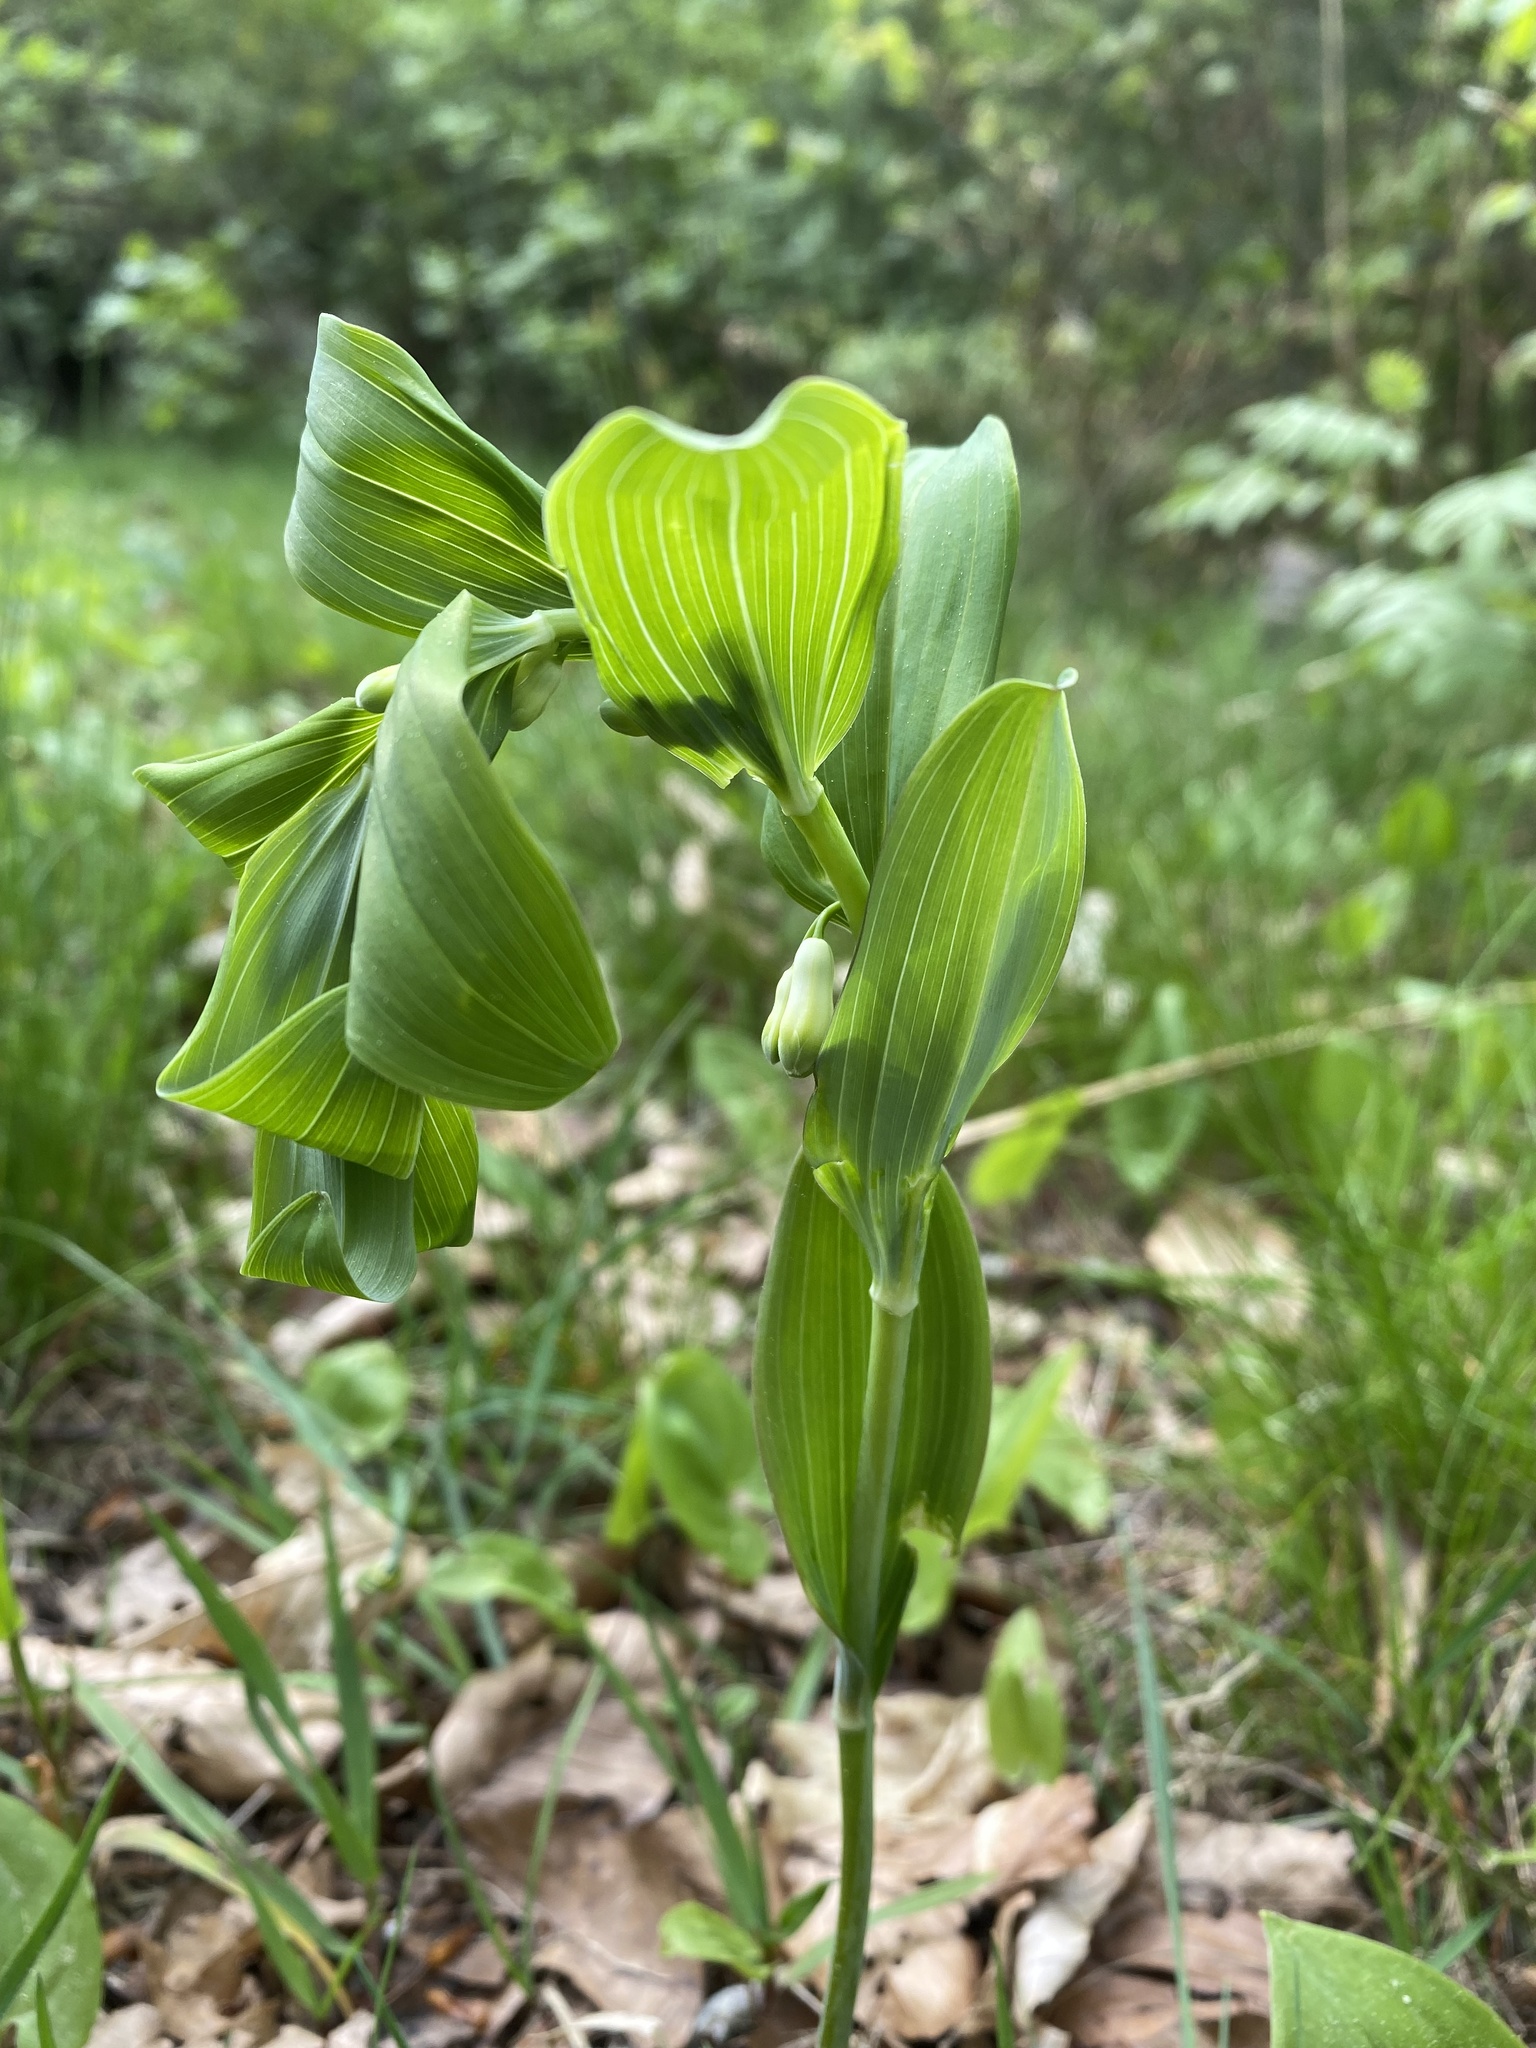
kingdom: Plantae
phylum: Tracheophyta
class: Liliopsida
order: Asparagales
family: Asparagaceae
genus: Polygonatum
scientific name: Polygonatum multiflorum
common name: Solomon's-seal
